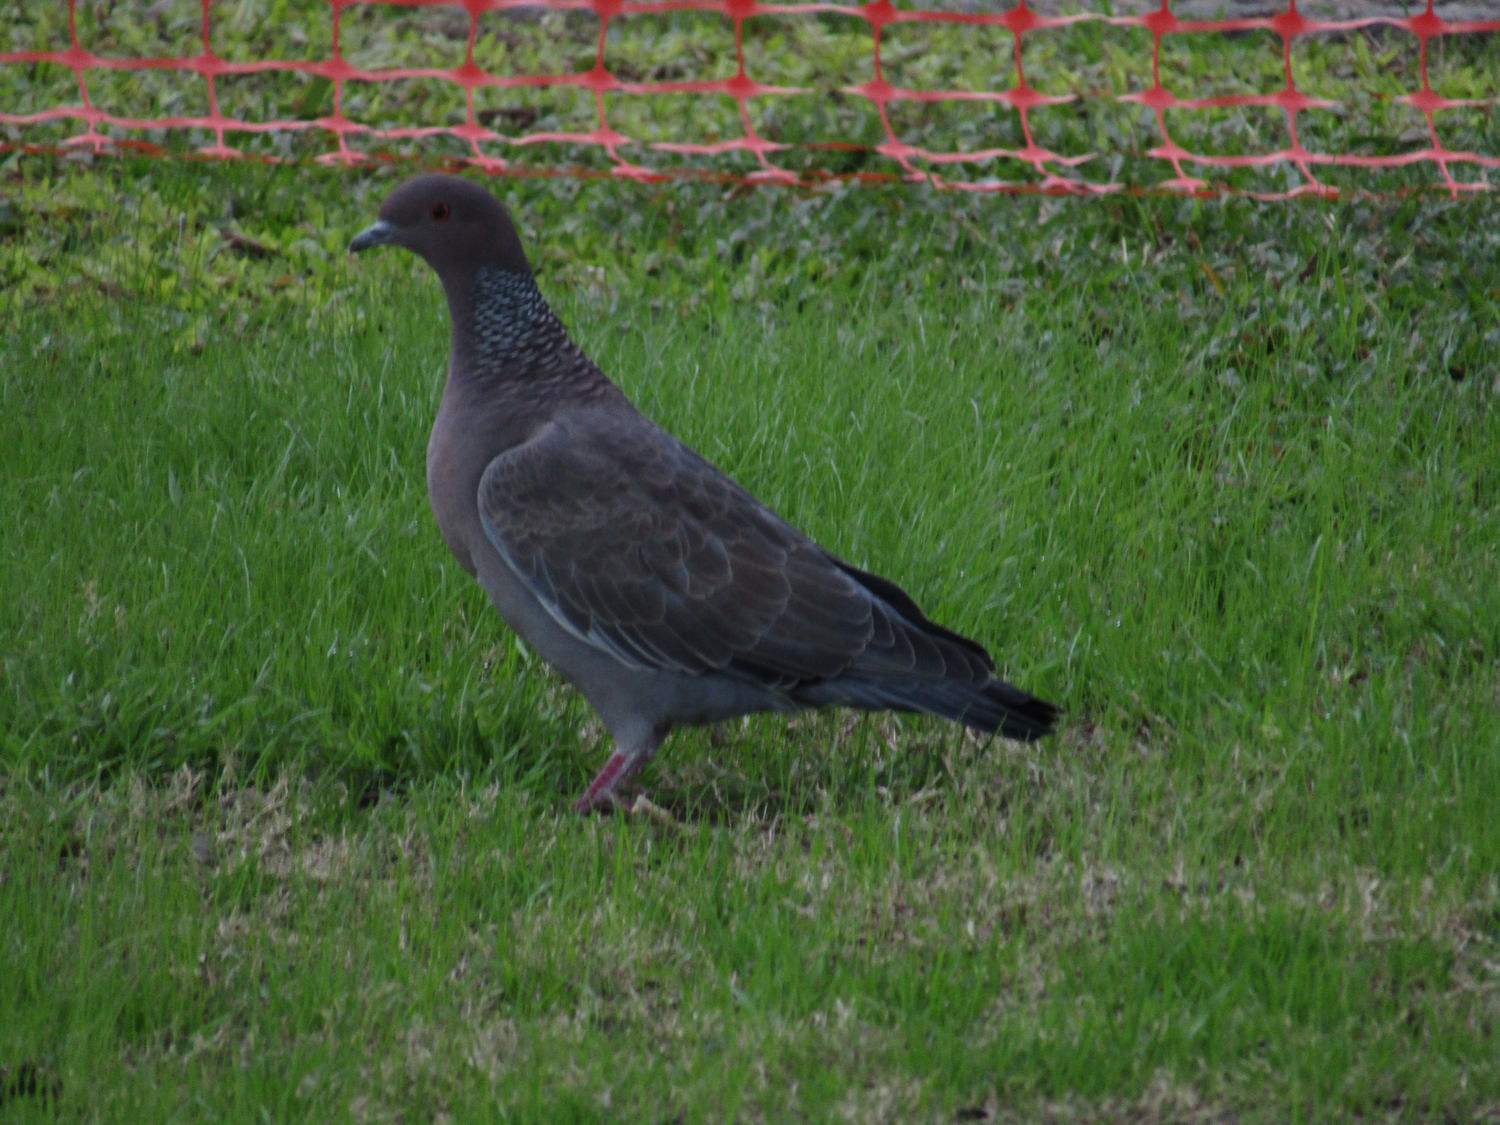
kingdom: Animalia
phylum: Chordata
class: Aves
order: Columbiformes
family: Columbidae
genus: Patagioenas
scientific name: Patagioenas picazuro
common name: Picazuro pigeon
